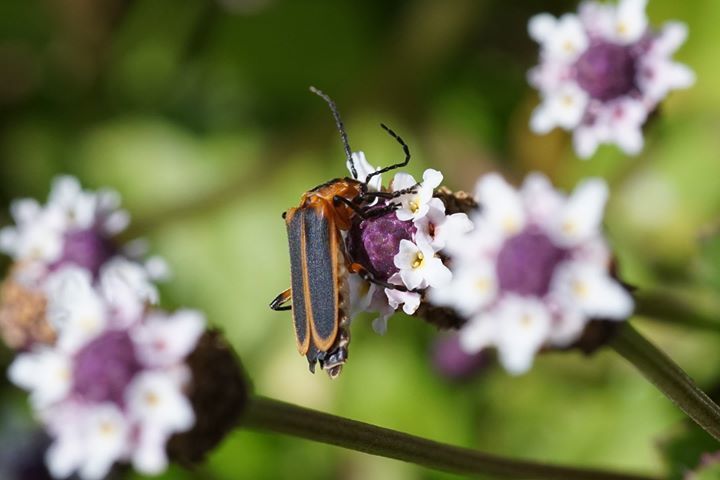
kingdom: Animalia
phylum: Arthropoda
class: Insecta
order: Coleoptera
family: Cantharidae
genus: Chauliognathus
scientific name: Chauliognathus marginatus
